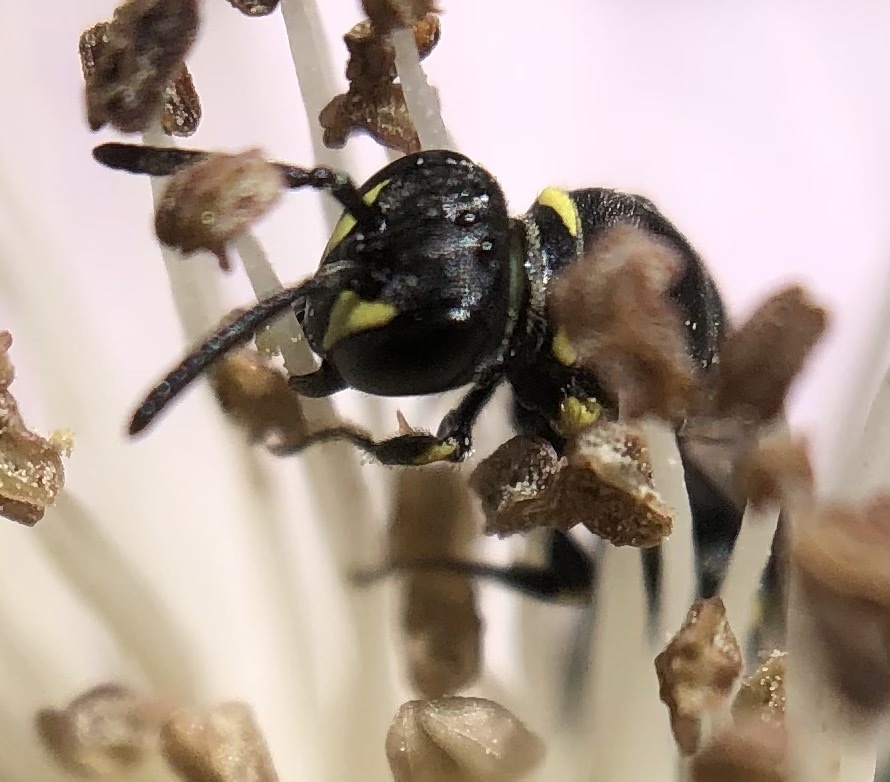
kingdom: Animalia
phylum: Arthropoda
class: Insecta
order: Hymenoptera
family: Colletidae
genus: Hylaeus
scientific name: Hylaeus modestus
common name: Yellow-faced bee
